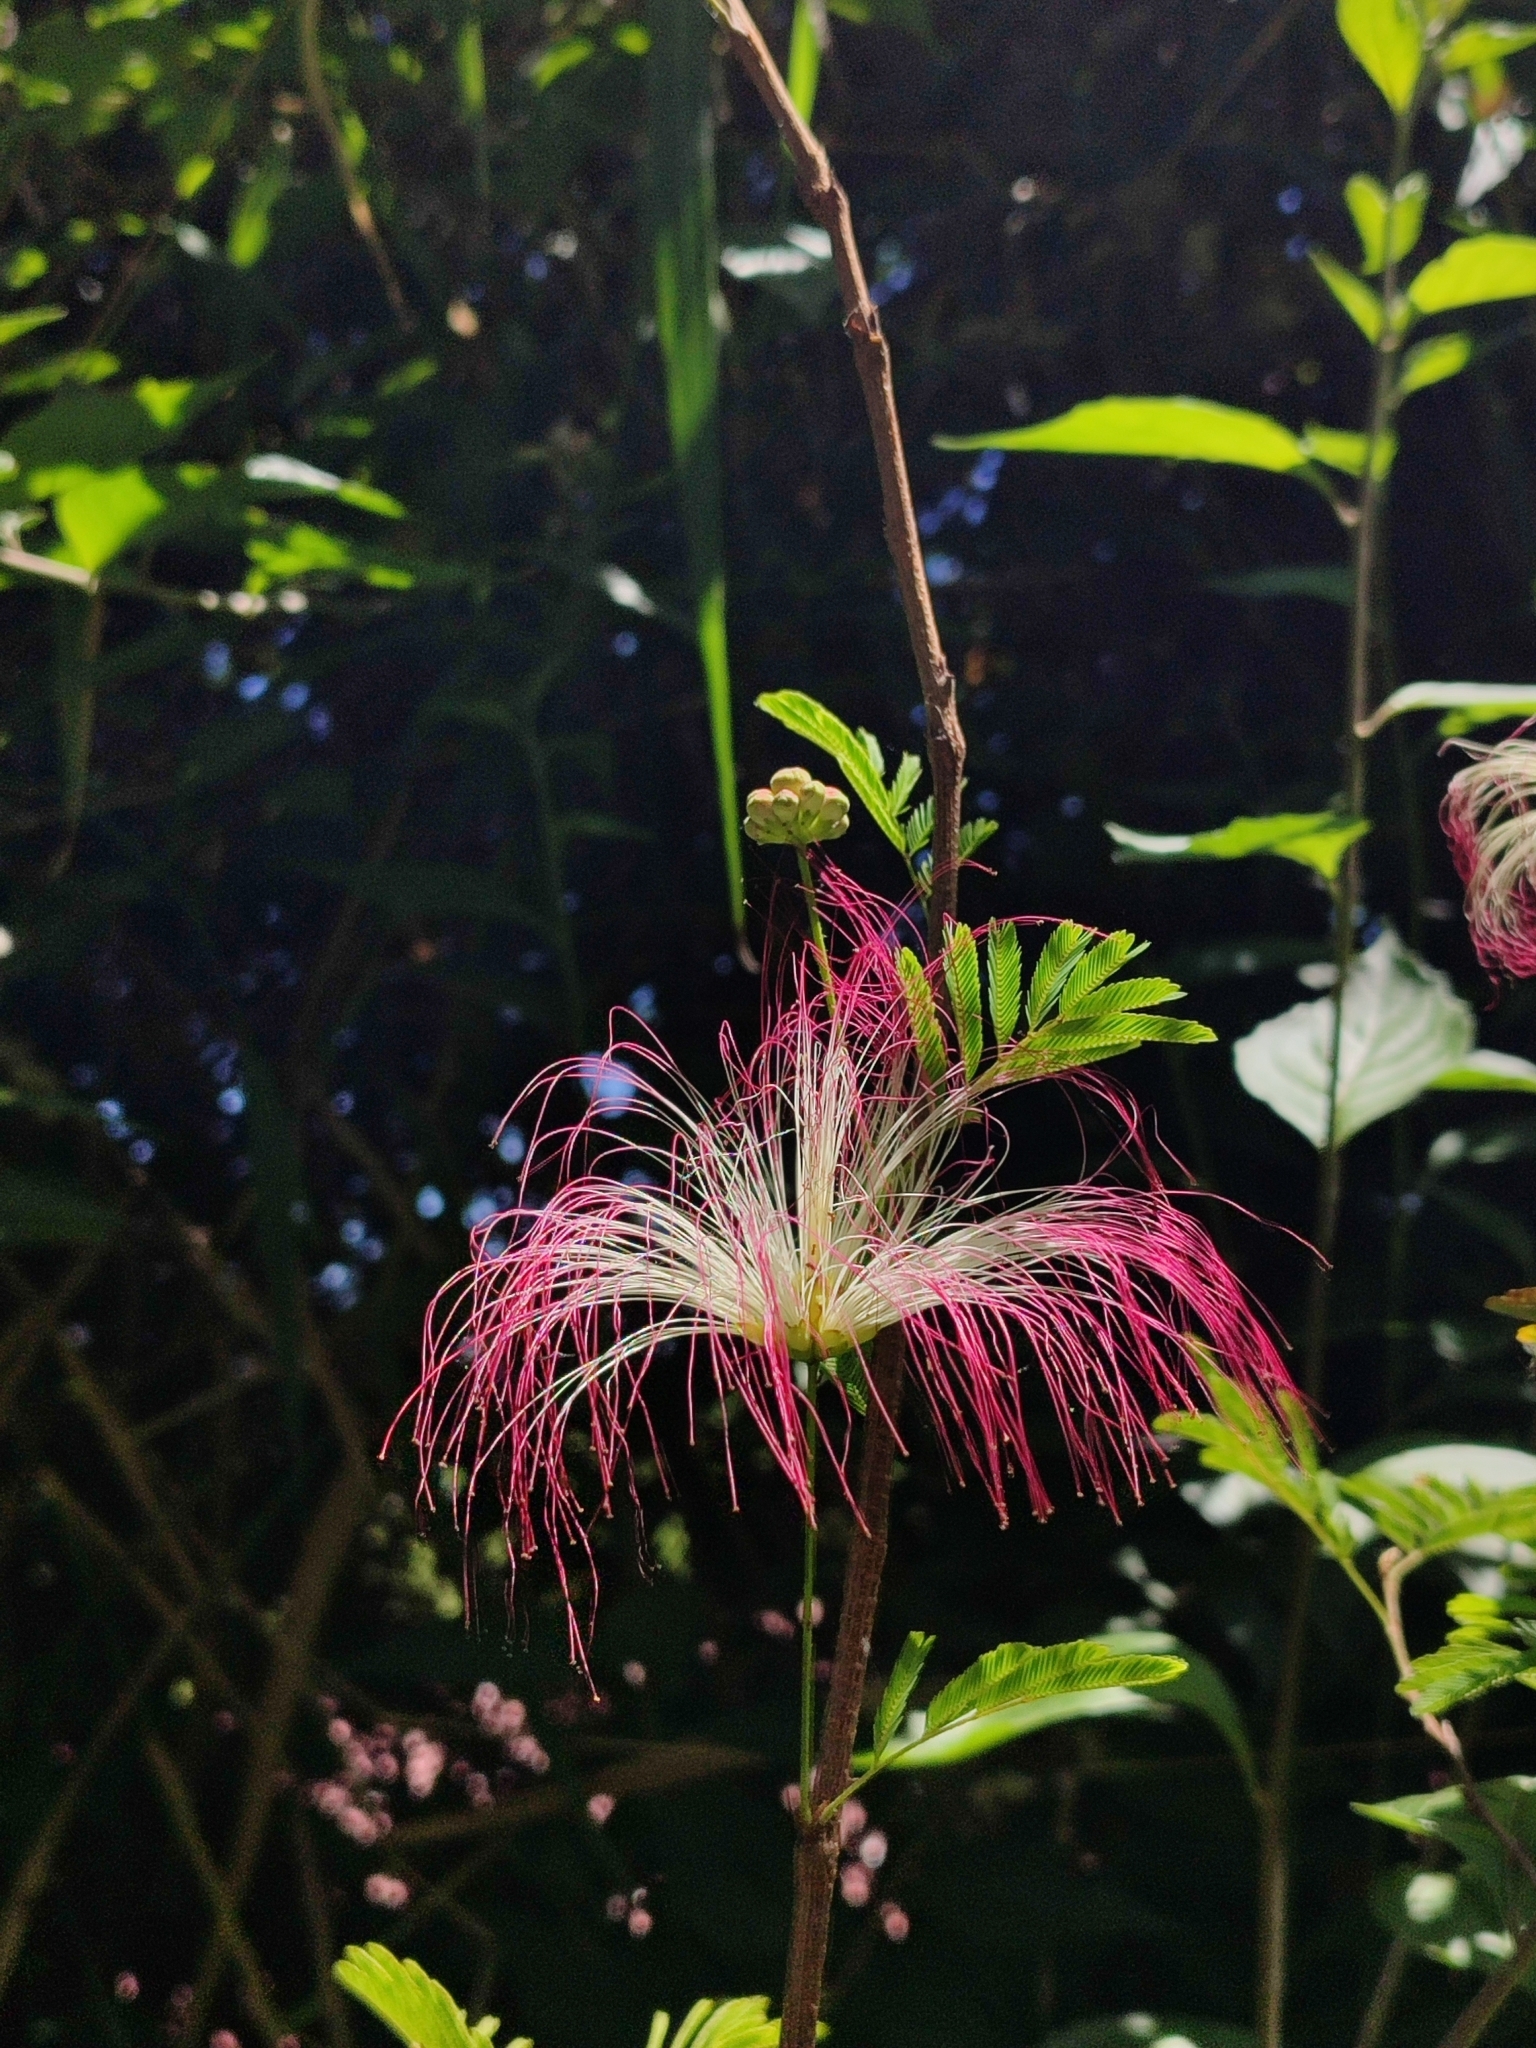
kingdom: Plantae
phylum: Tracheophyta
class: Magnoliopsida
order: Fabales
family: Fabaceae
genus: Calliandra
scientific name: Calliandra parvifolia
